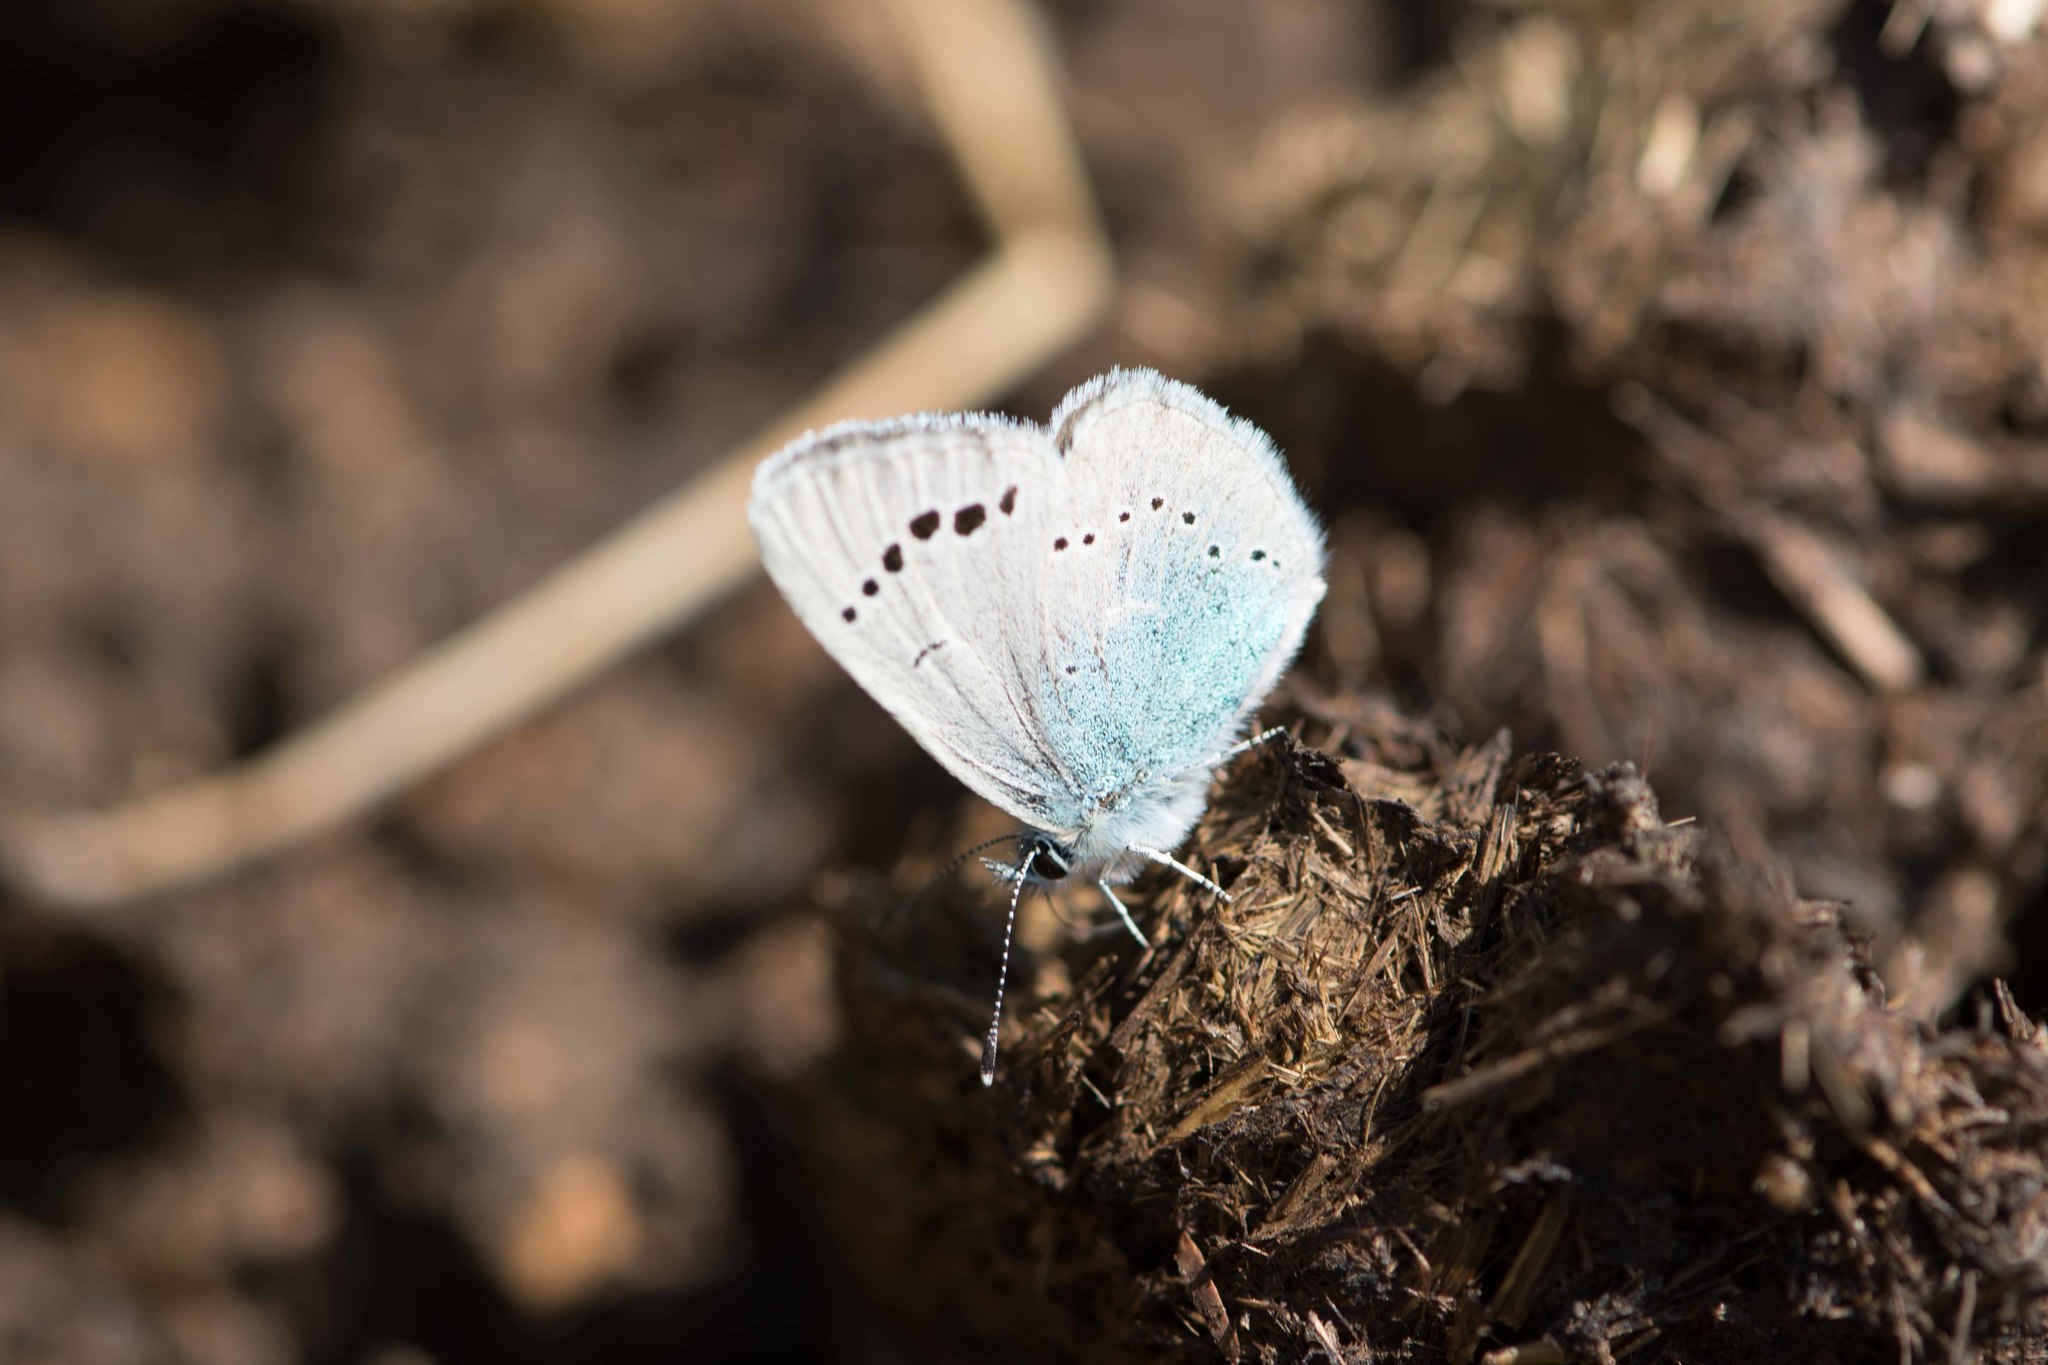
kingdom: Animalia
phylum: Arthropoda
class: Insecta
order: Lepidoptera
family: Lycaenidae
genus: Glaucopsyche
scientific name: Glaucopsyche alexis
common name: Green-underside blue
